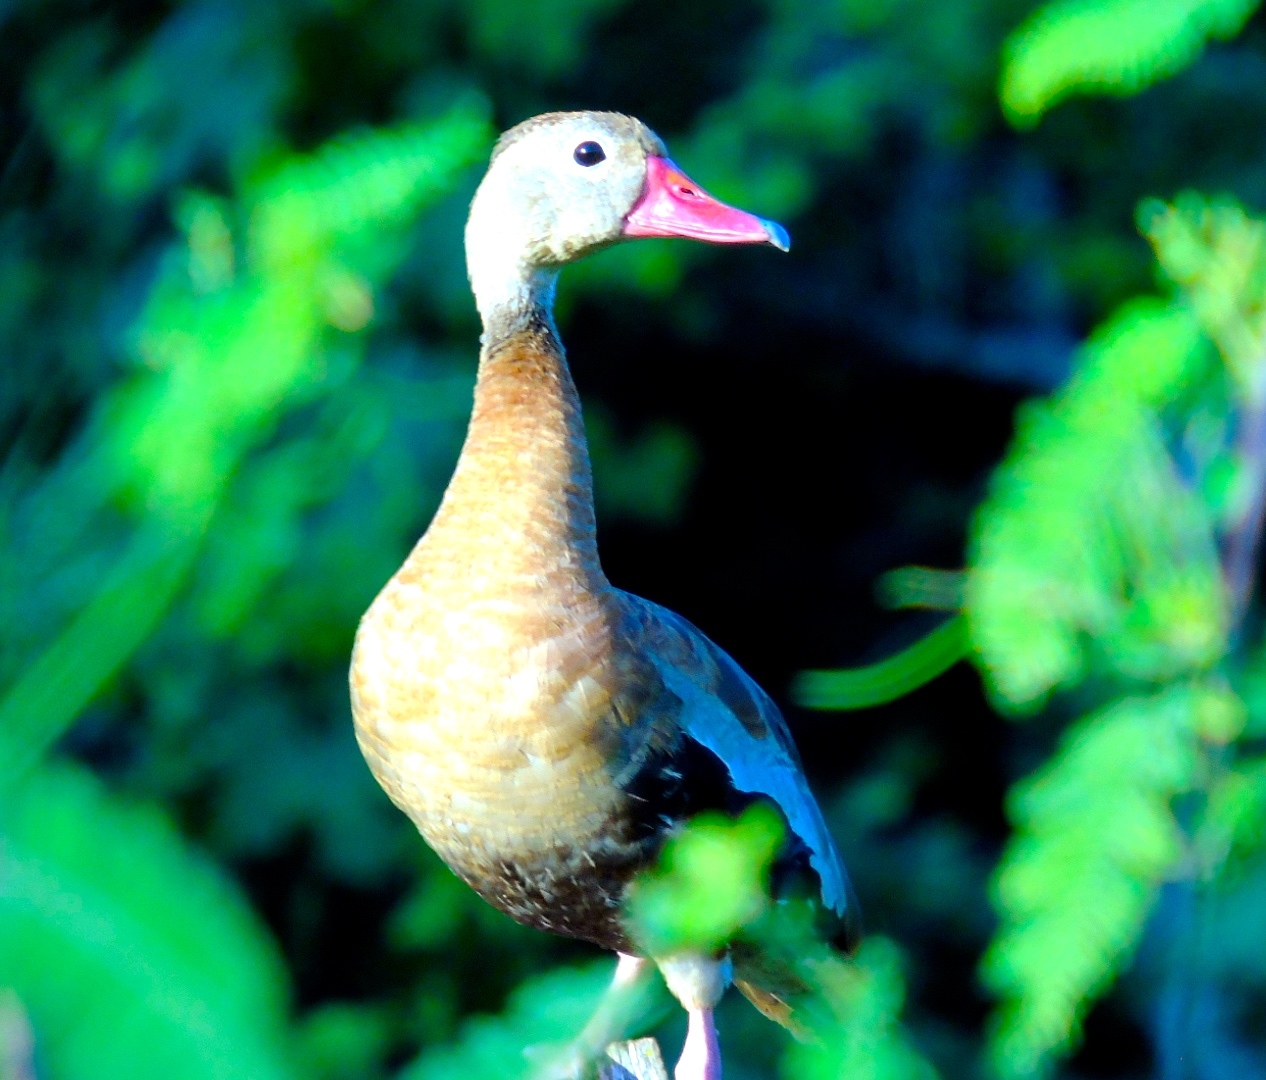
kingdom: Animalia
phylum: Chordata
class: Aves
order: Anseriformes
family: Anatidae
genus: Dendrocygna
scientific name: Dendrocygna autumnalis
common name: Black-bellied whistling duck
